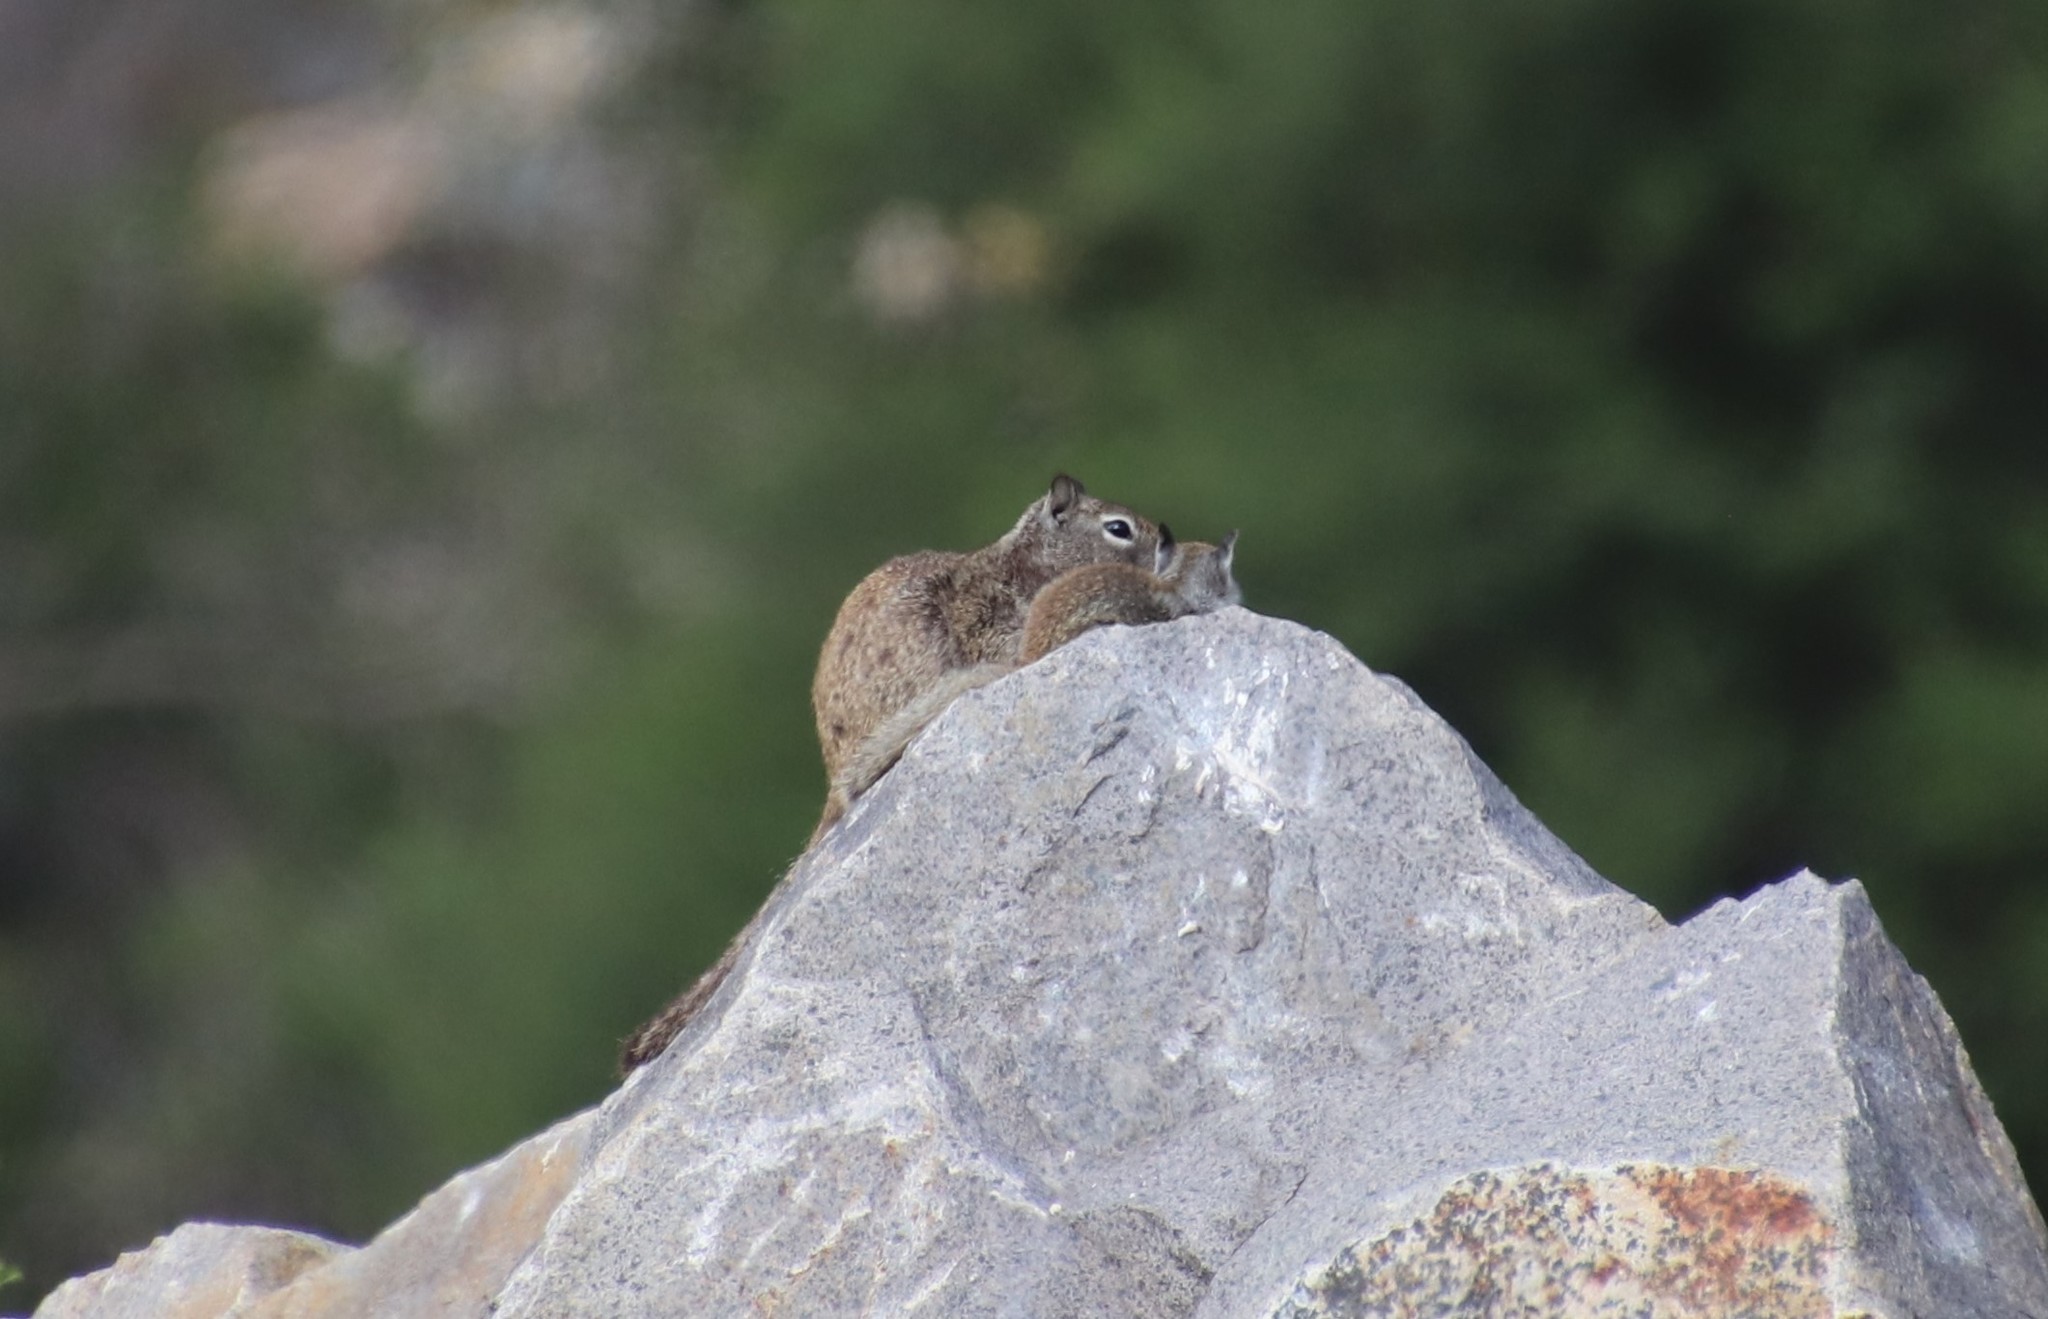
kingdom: Animalia
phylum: Chordata
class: Mammalia
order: Rodentia
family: Sciuridae
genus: Otospermophilus
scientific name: Otospermophilus beecheyi
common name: California ground squirrel
